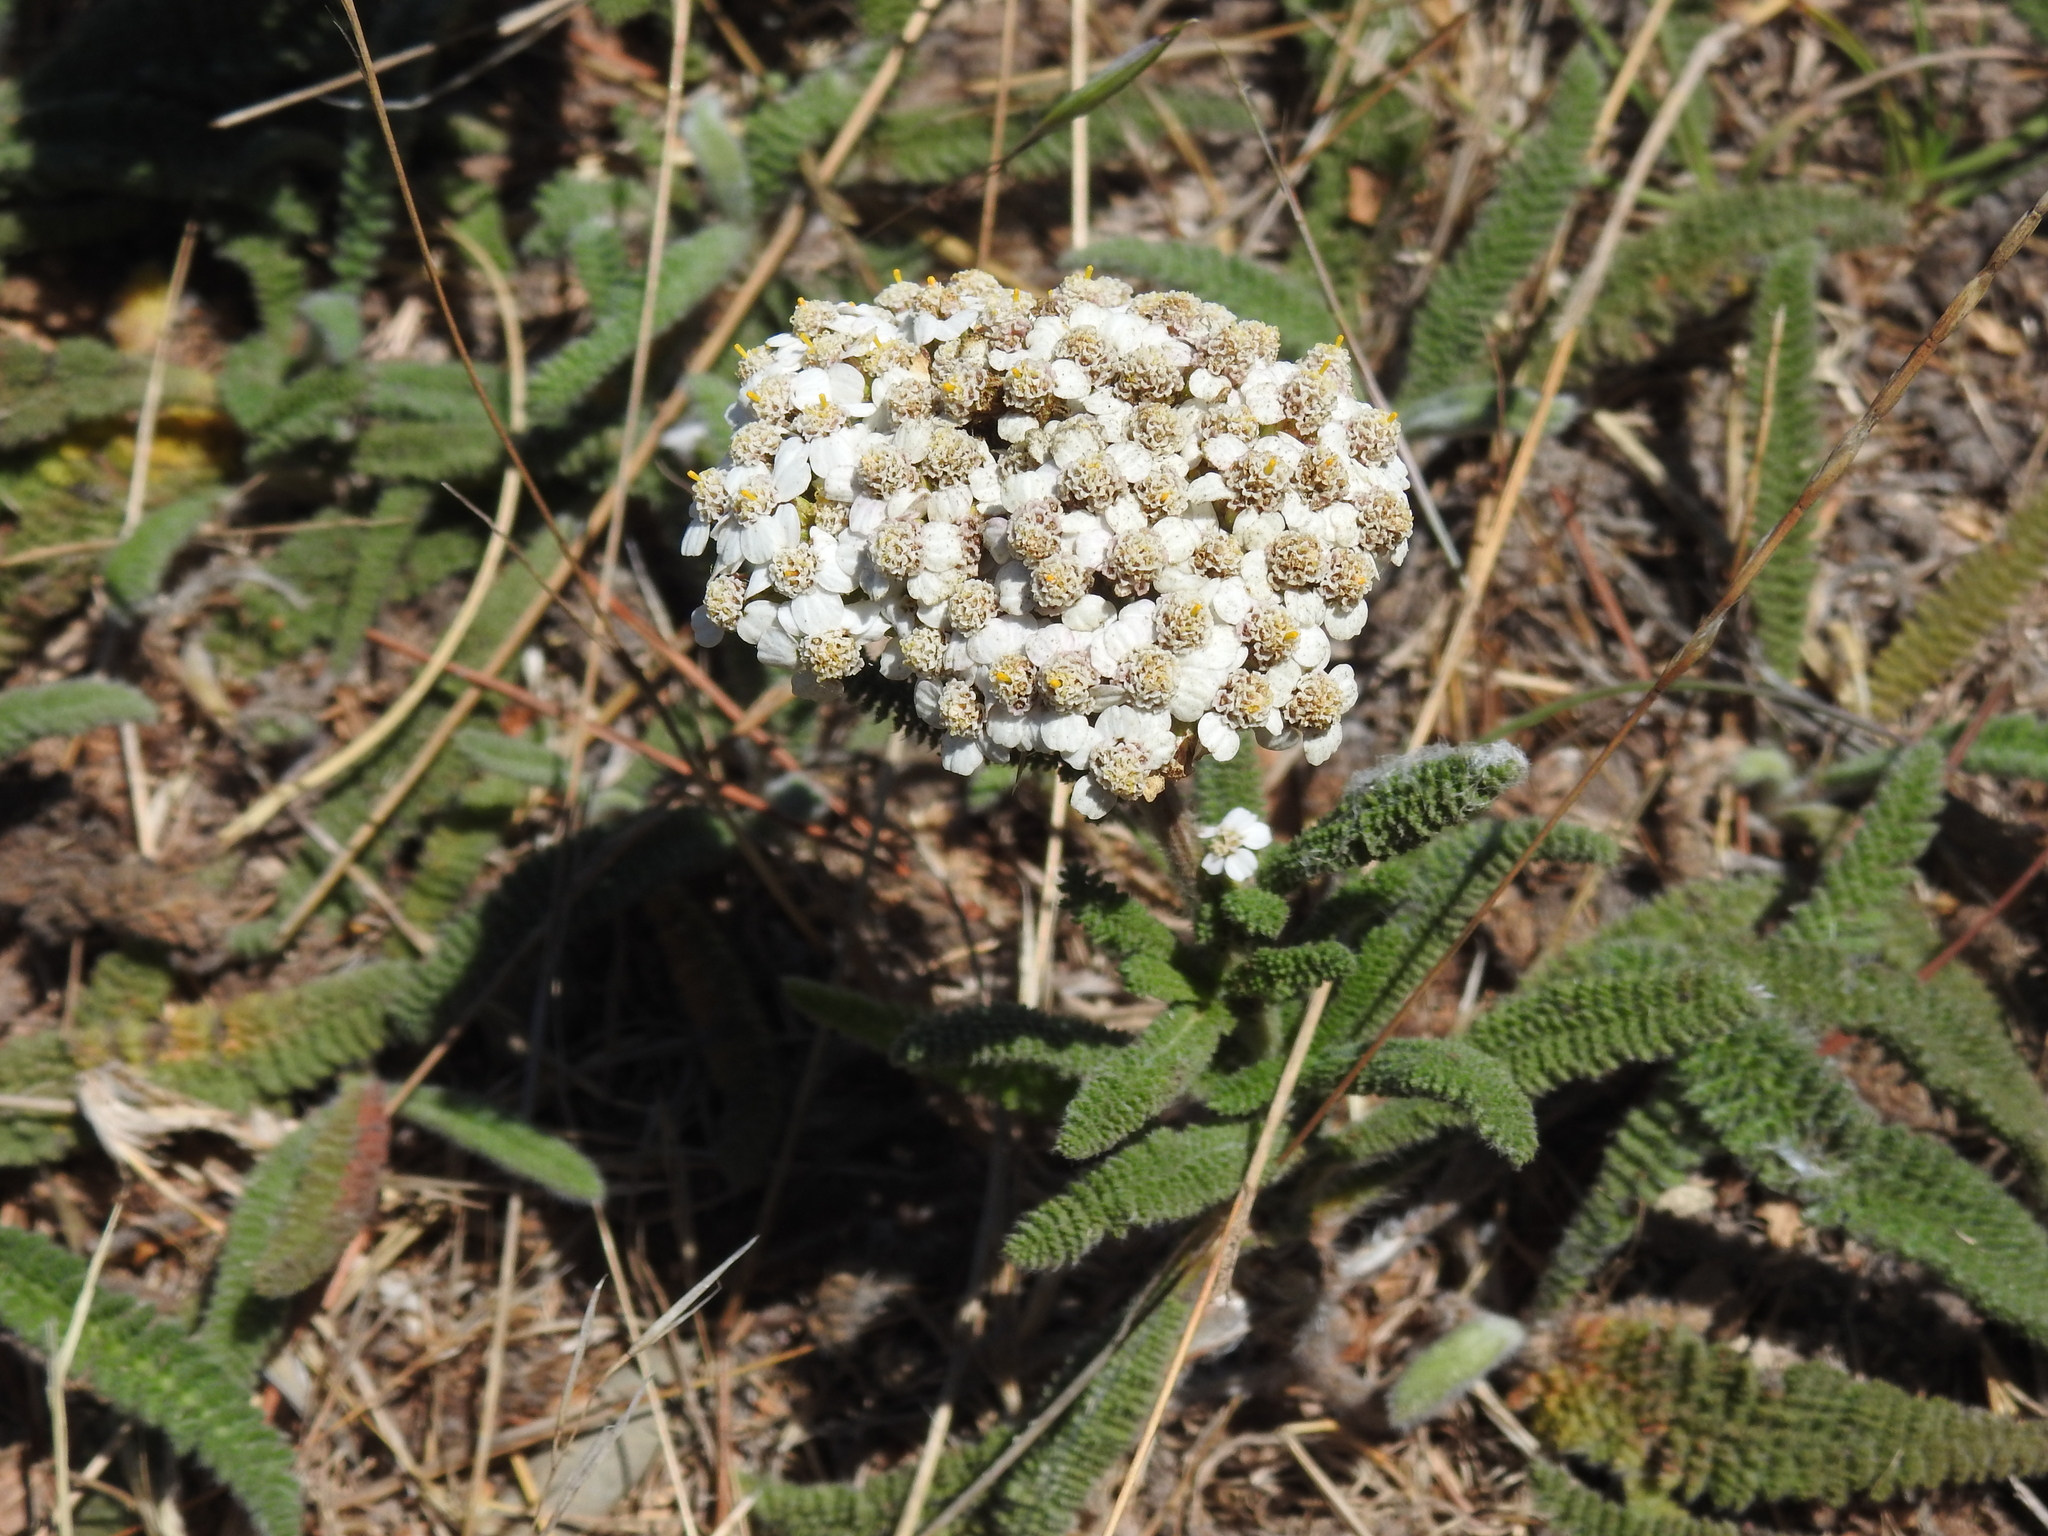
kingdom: Plantae
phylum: Tracheophyta
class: Magnoliopsida
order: Asterales
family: Asteraceae
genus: Achillea
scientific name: Achillea millefolium
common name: Yarrow
